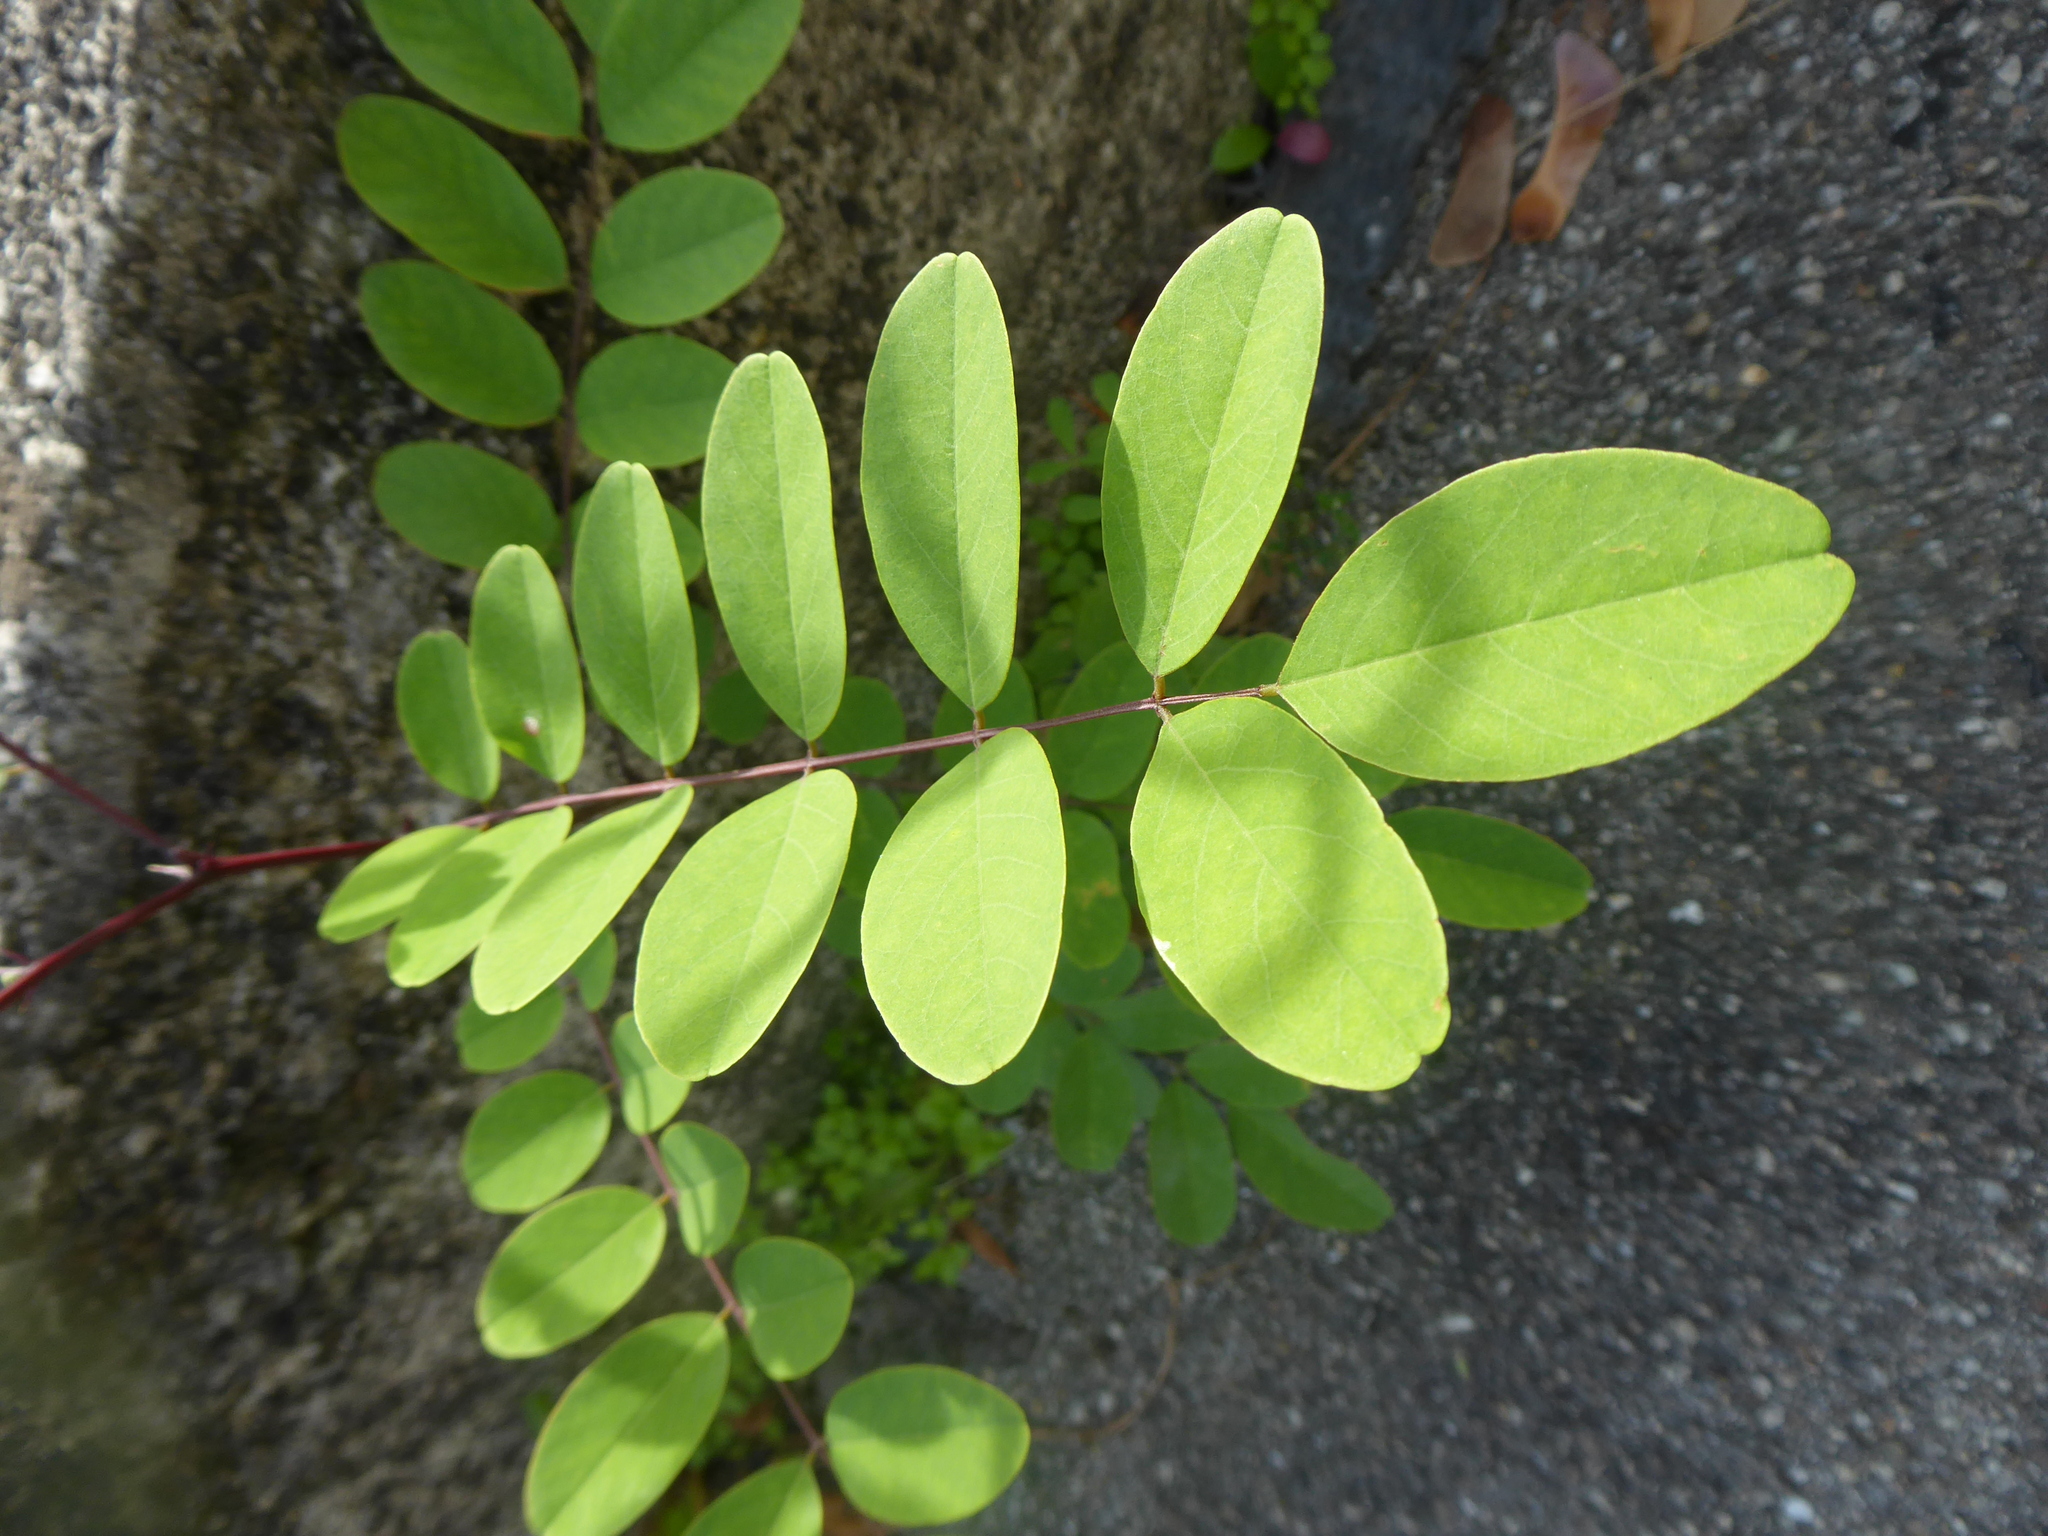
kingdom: Plantae
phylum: Tracheophyta
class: Magnoliopsida
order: Fabales
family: Fabaceae
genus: Robinia
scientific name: Robinia pseudoacacia
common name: Black locust
